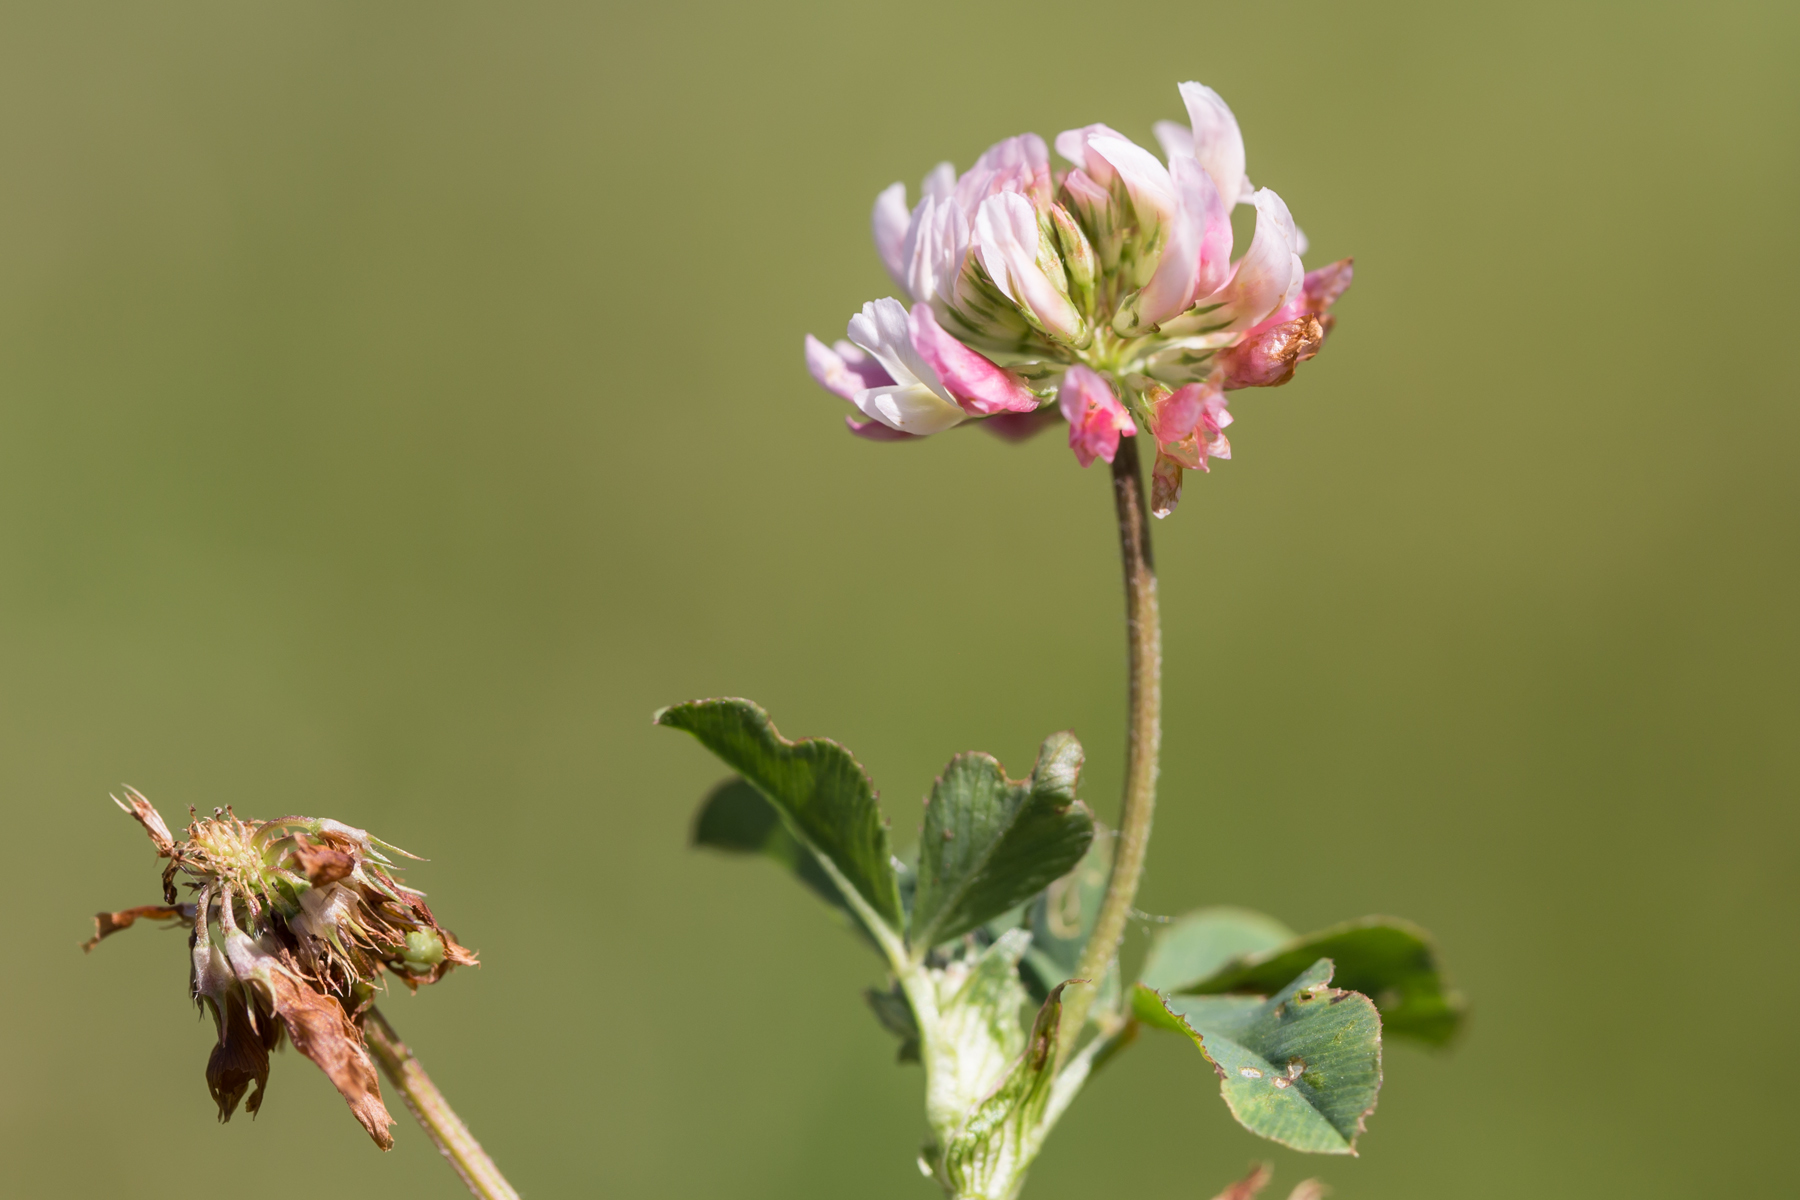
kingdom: Plantae
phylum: Tracheophyta
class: Magnoliopsida
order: Fabales
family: Fabaceae
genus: Trifolium
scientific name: Trifolium hybridum
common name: Alsike clover
